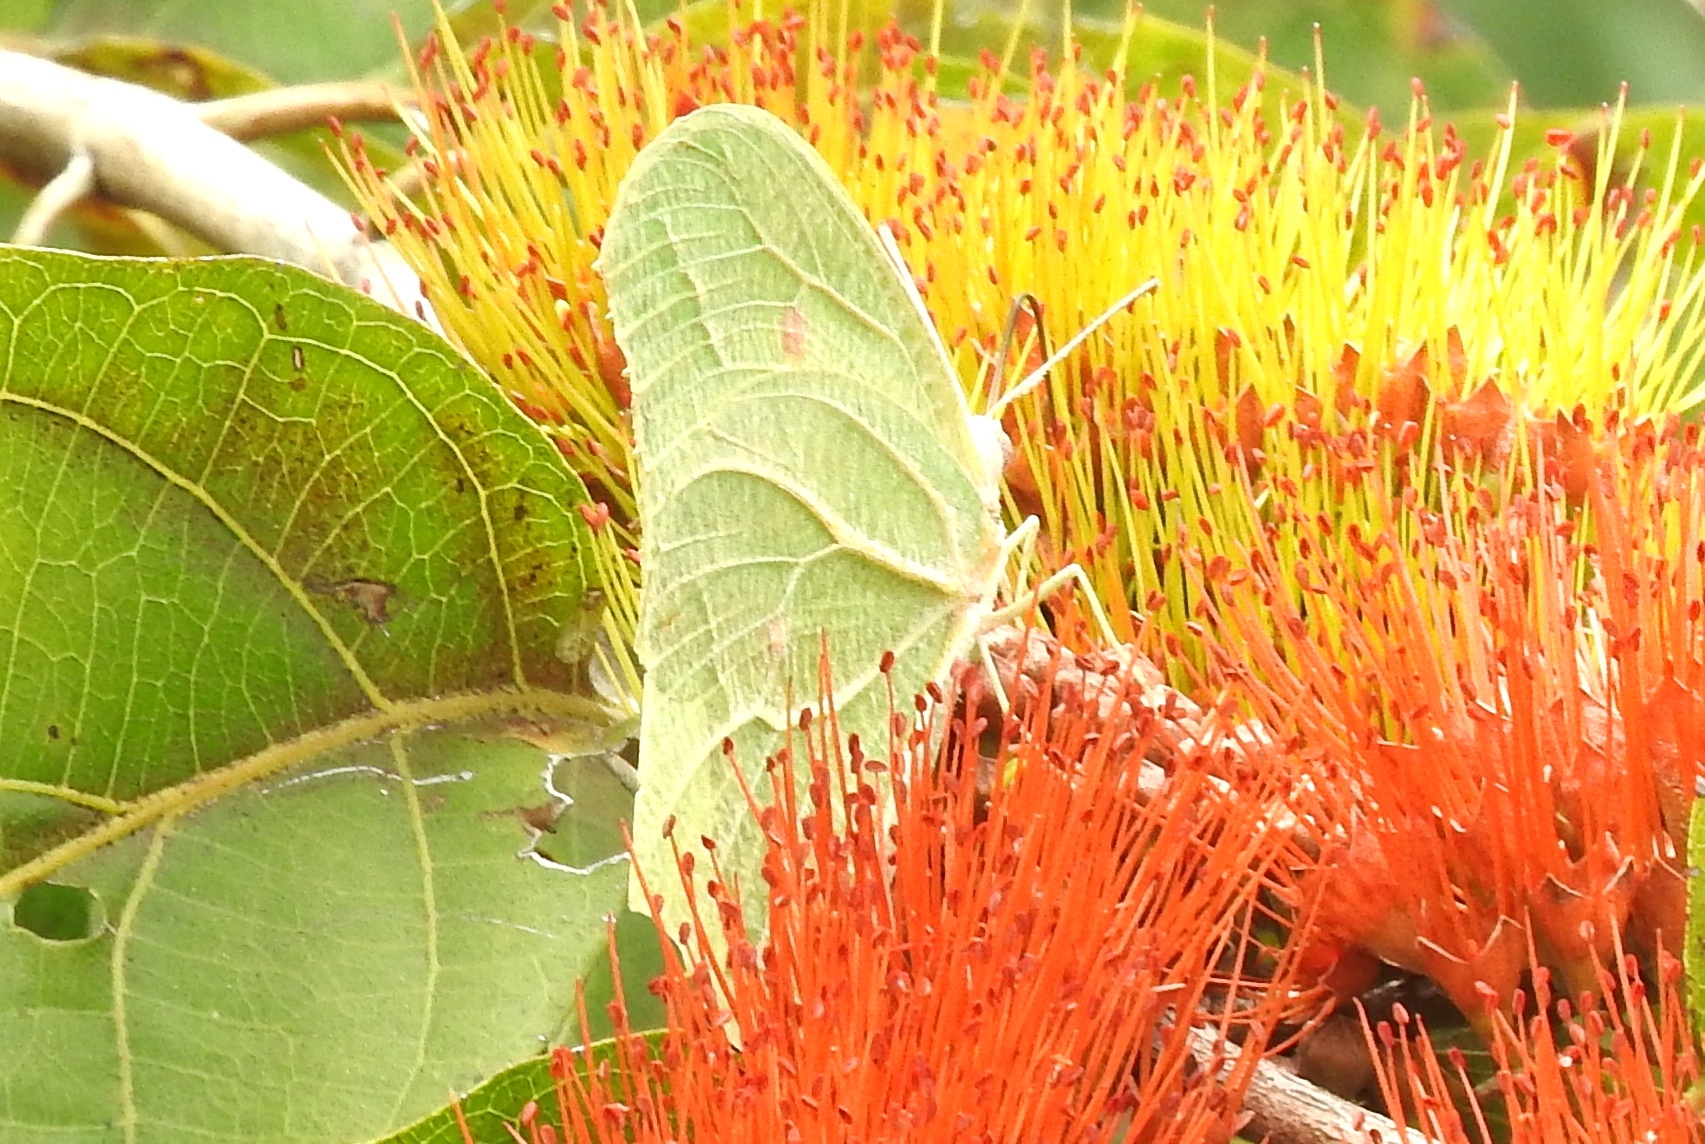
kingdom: Animalia
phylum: Arthropoda
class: Insecta
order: Lepidoptera
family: Pieridae
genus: Anteos
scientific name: Anteos clorinde
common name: White angled sulphur
